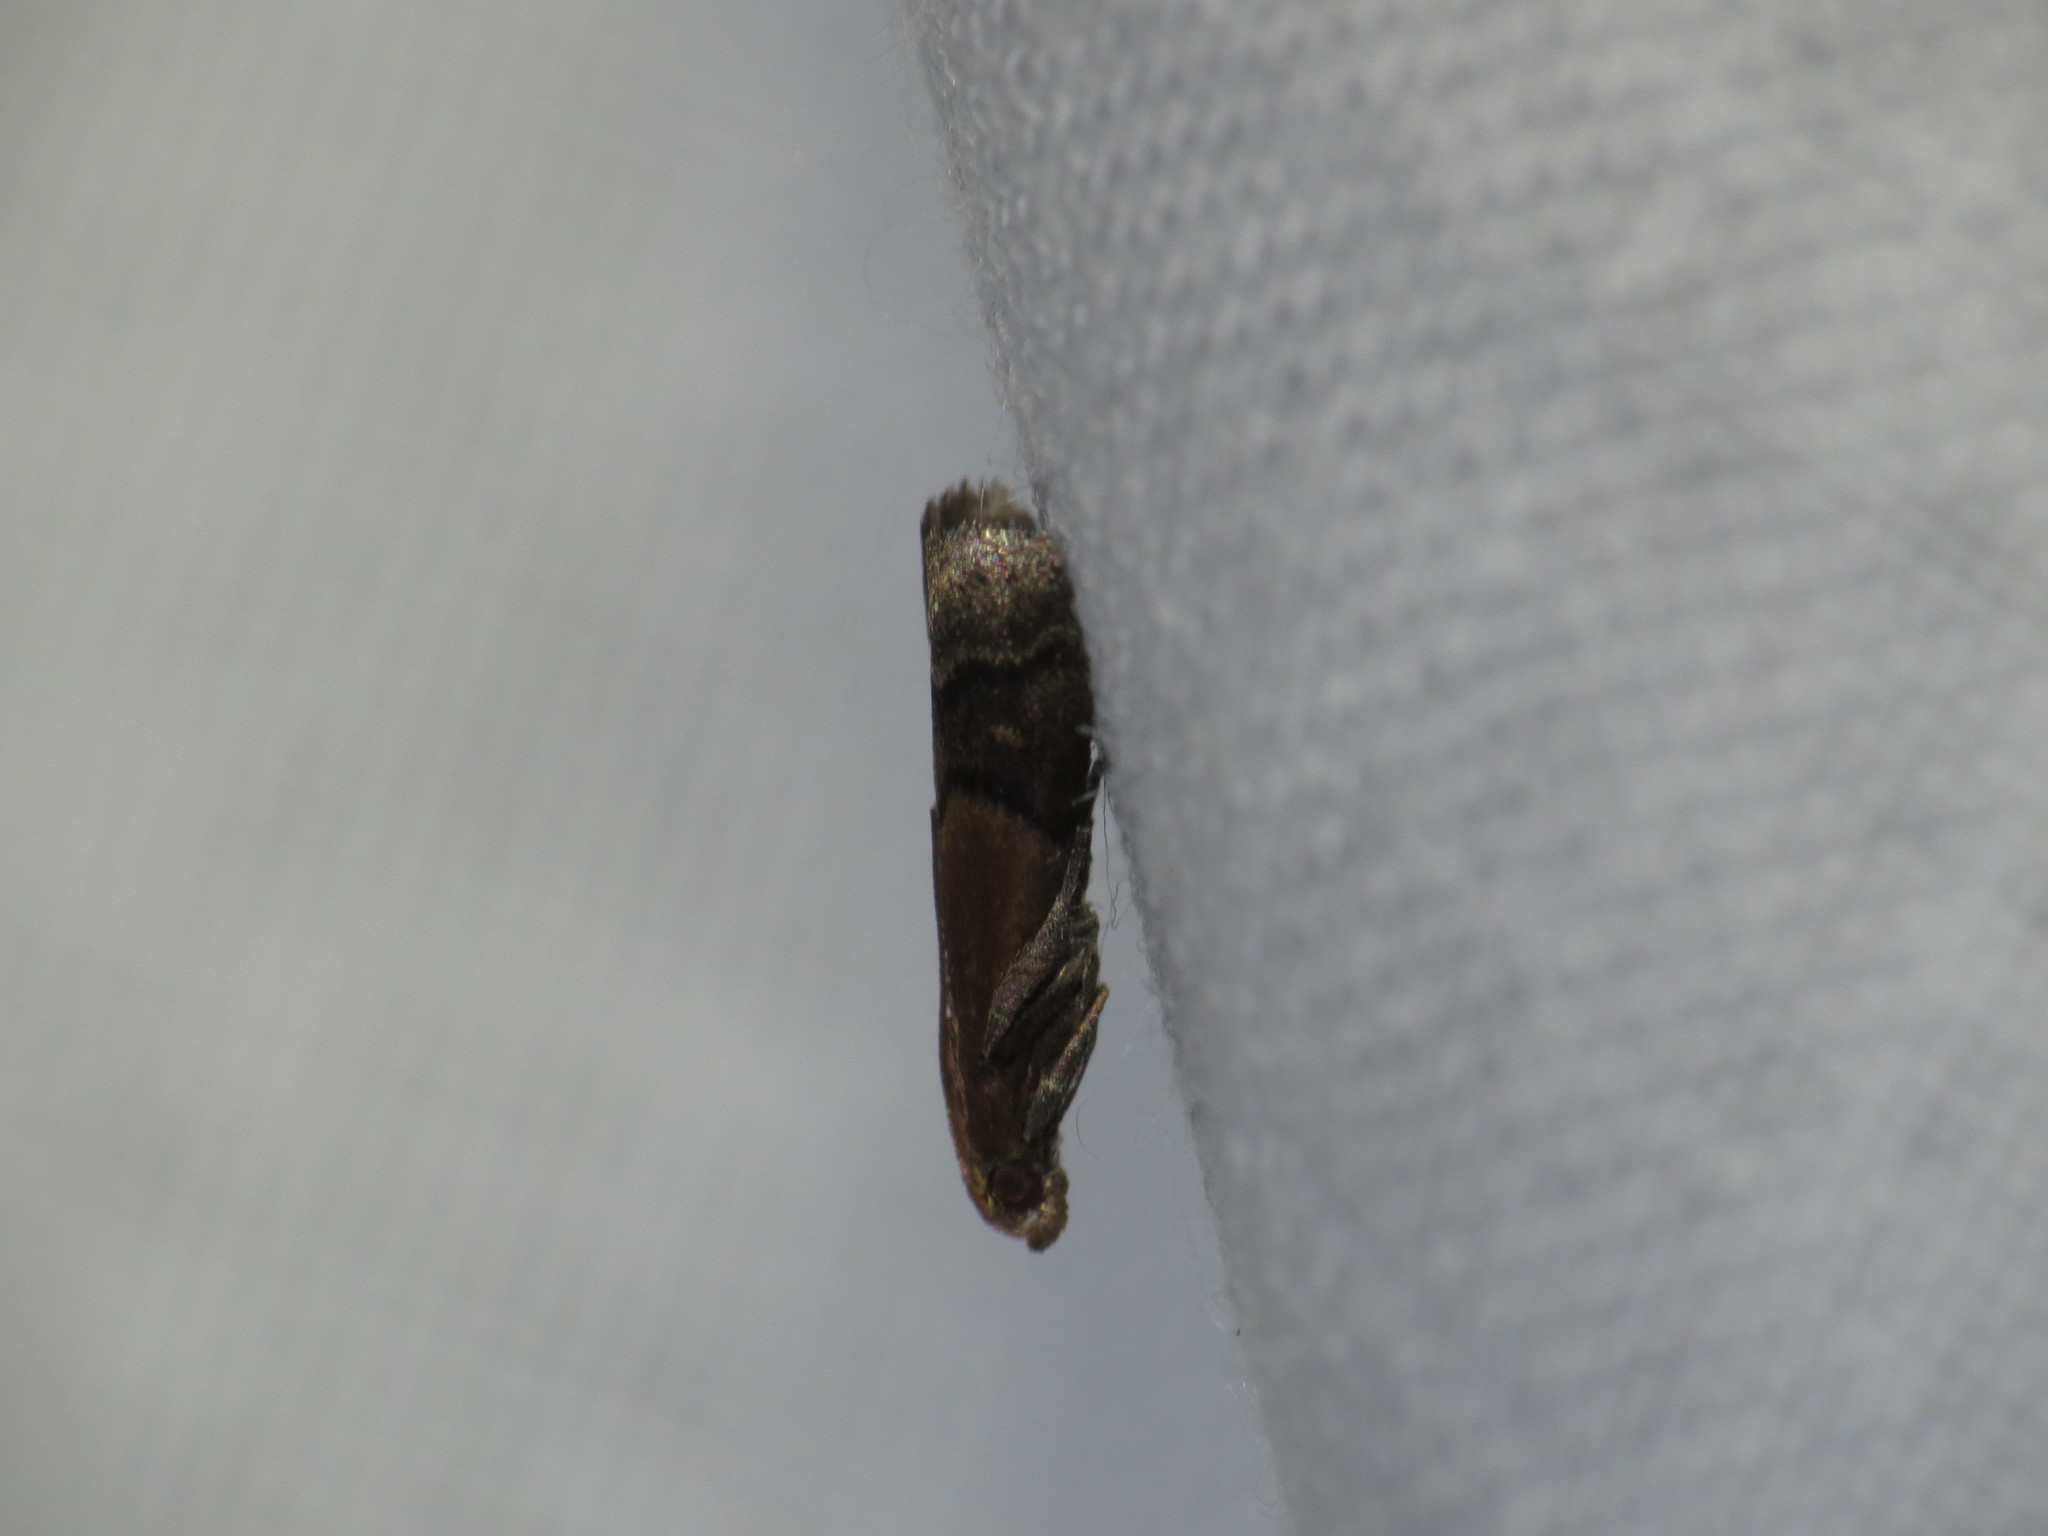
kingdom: Animalia
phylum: Arthropoda
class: Insecta
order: Lepidoptera
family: Pyralidae
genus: Eulogia
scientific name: Eulogia ochrifrontella
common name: Broad-banded eulogia moth
